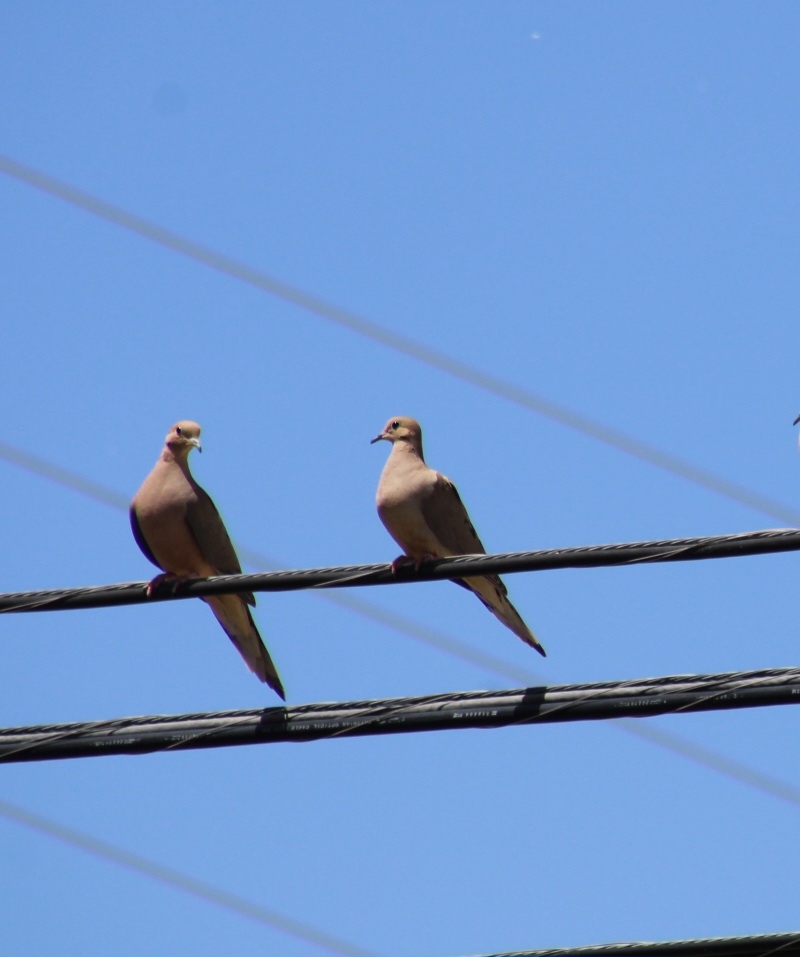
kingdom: Animalia
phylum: Chordata
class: Aves
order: Columbiformes
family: Columbidae
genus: Zenaida
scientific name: Zenaida macroura
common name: Mourning dove
